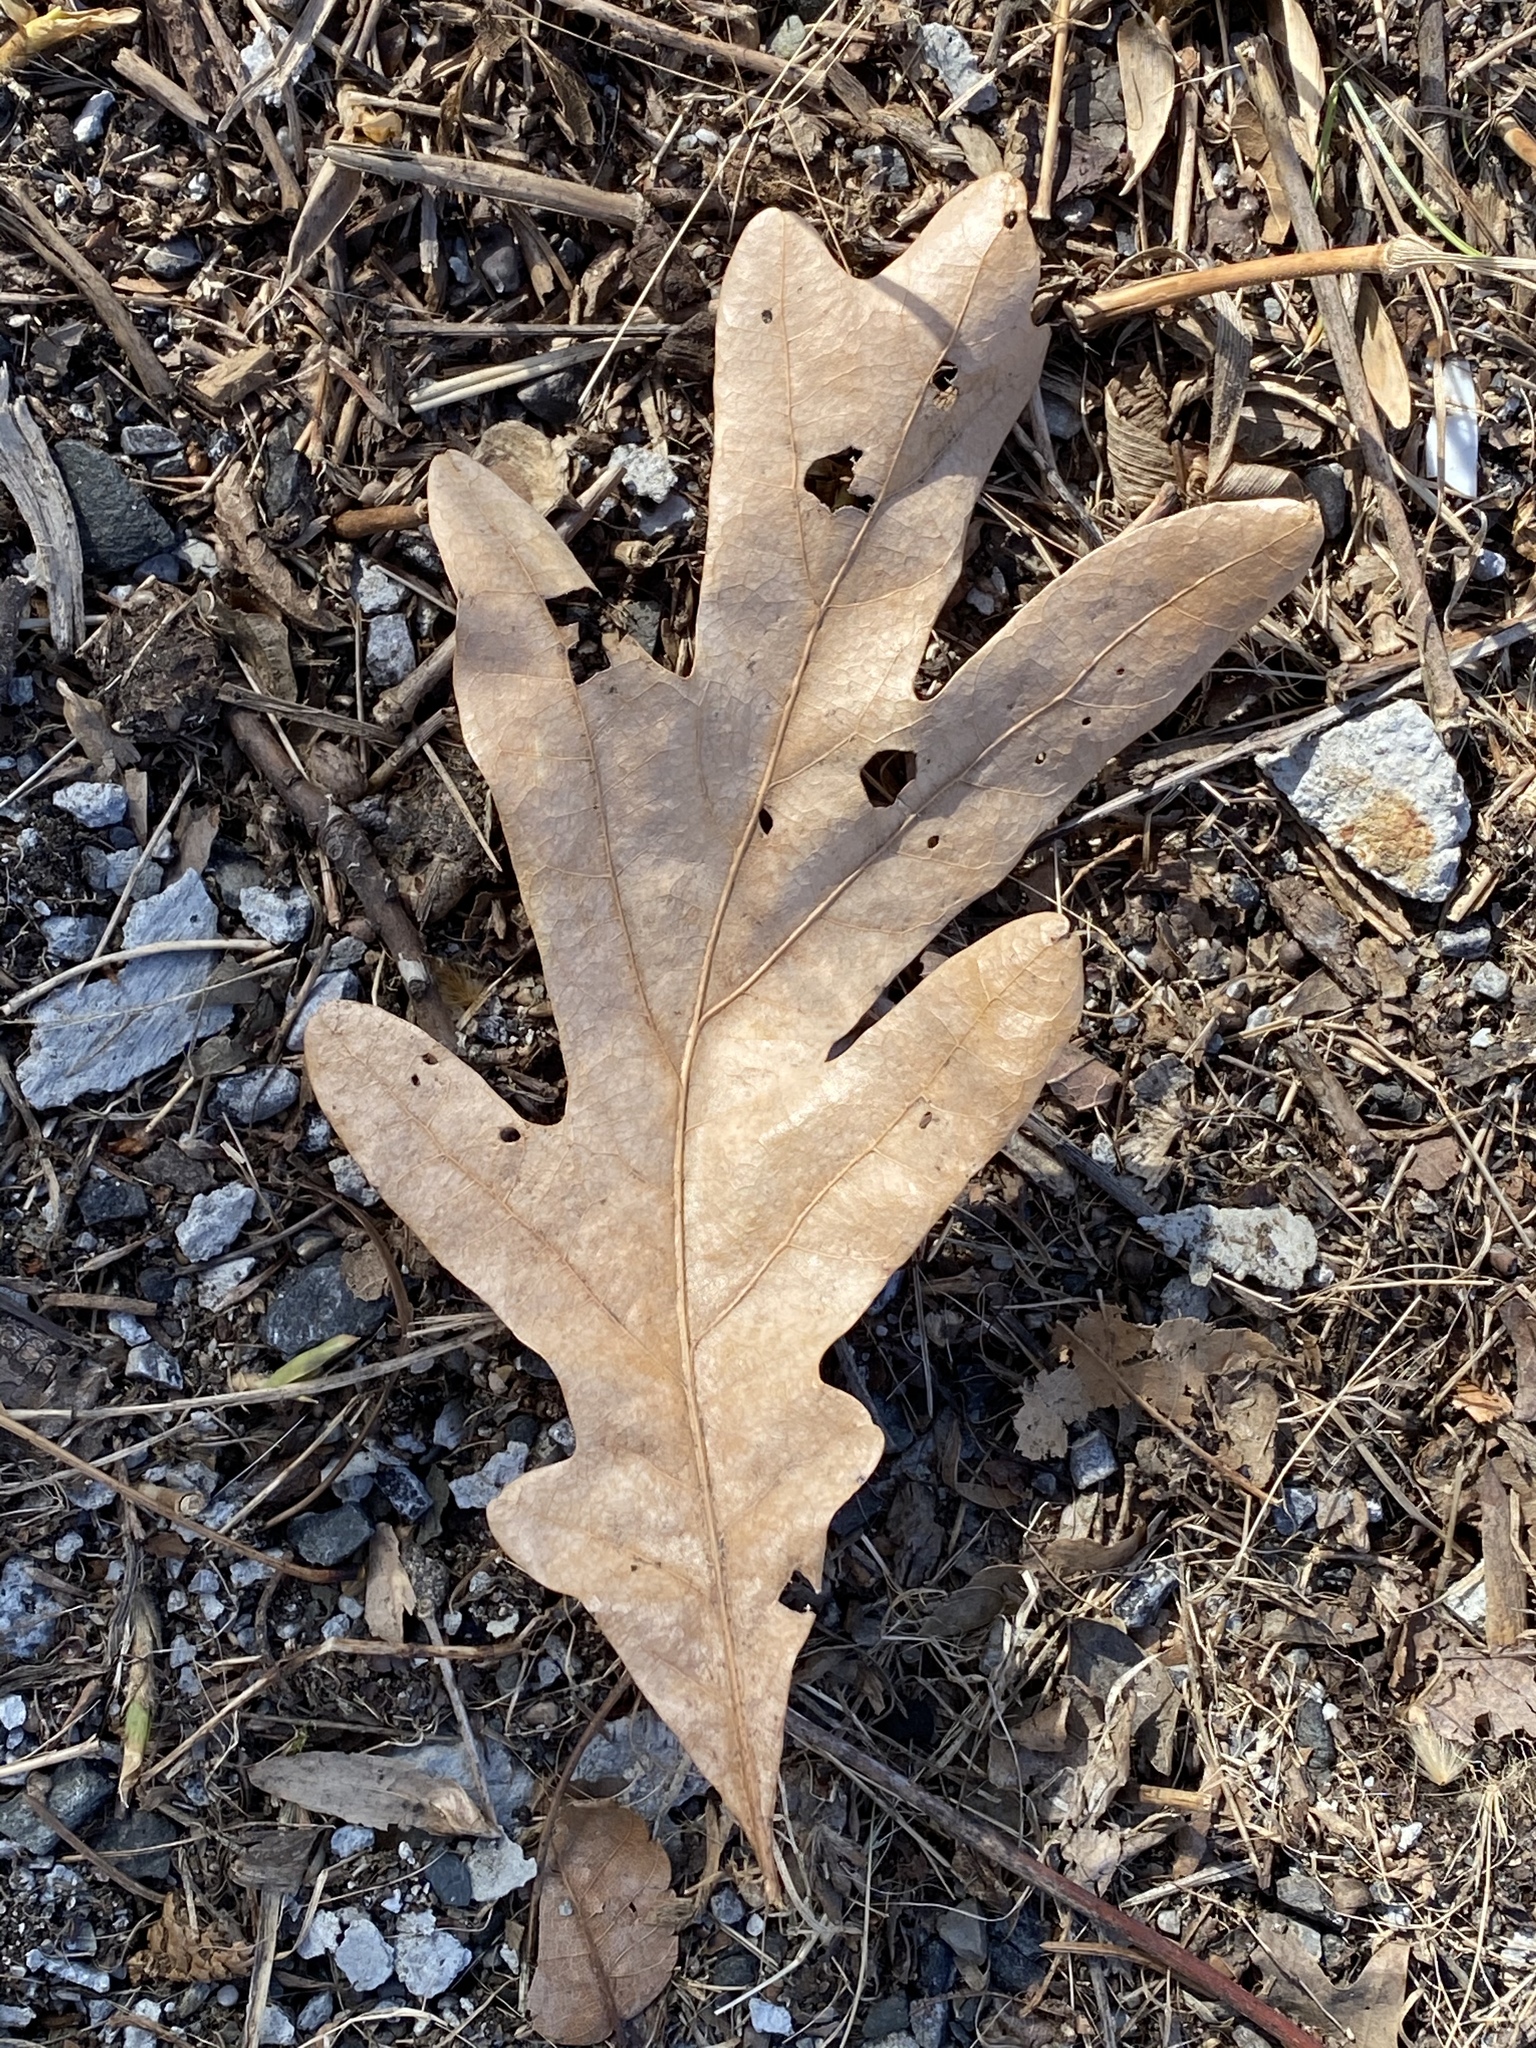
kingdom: Plantae
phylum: Tracheophyta
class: Magnoliopsida
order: Fagales
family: Fagaceae
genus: Quercus
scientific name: Quercus alba
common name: White oak
